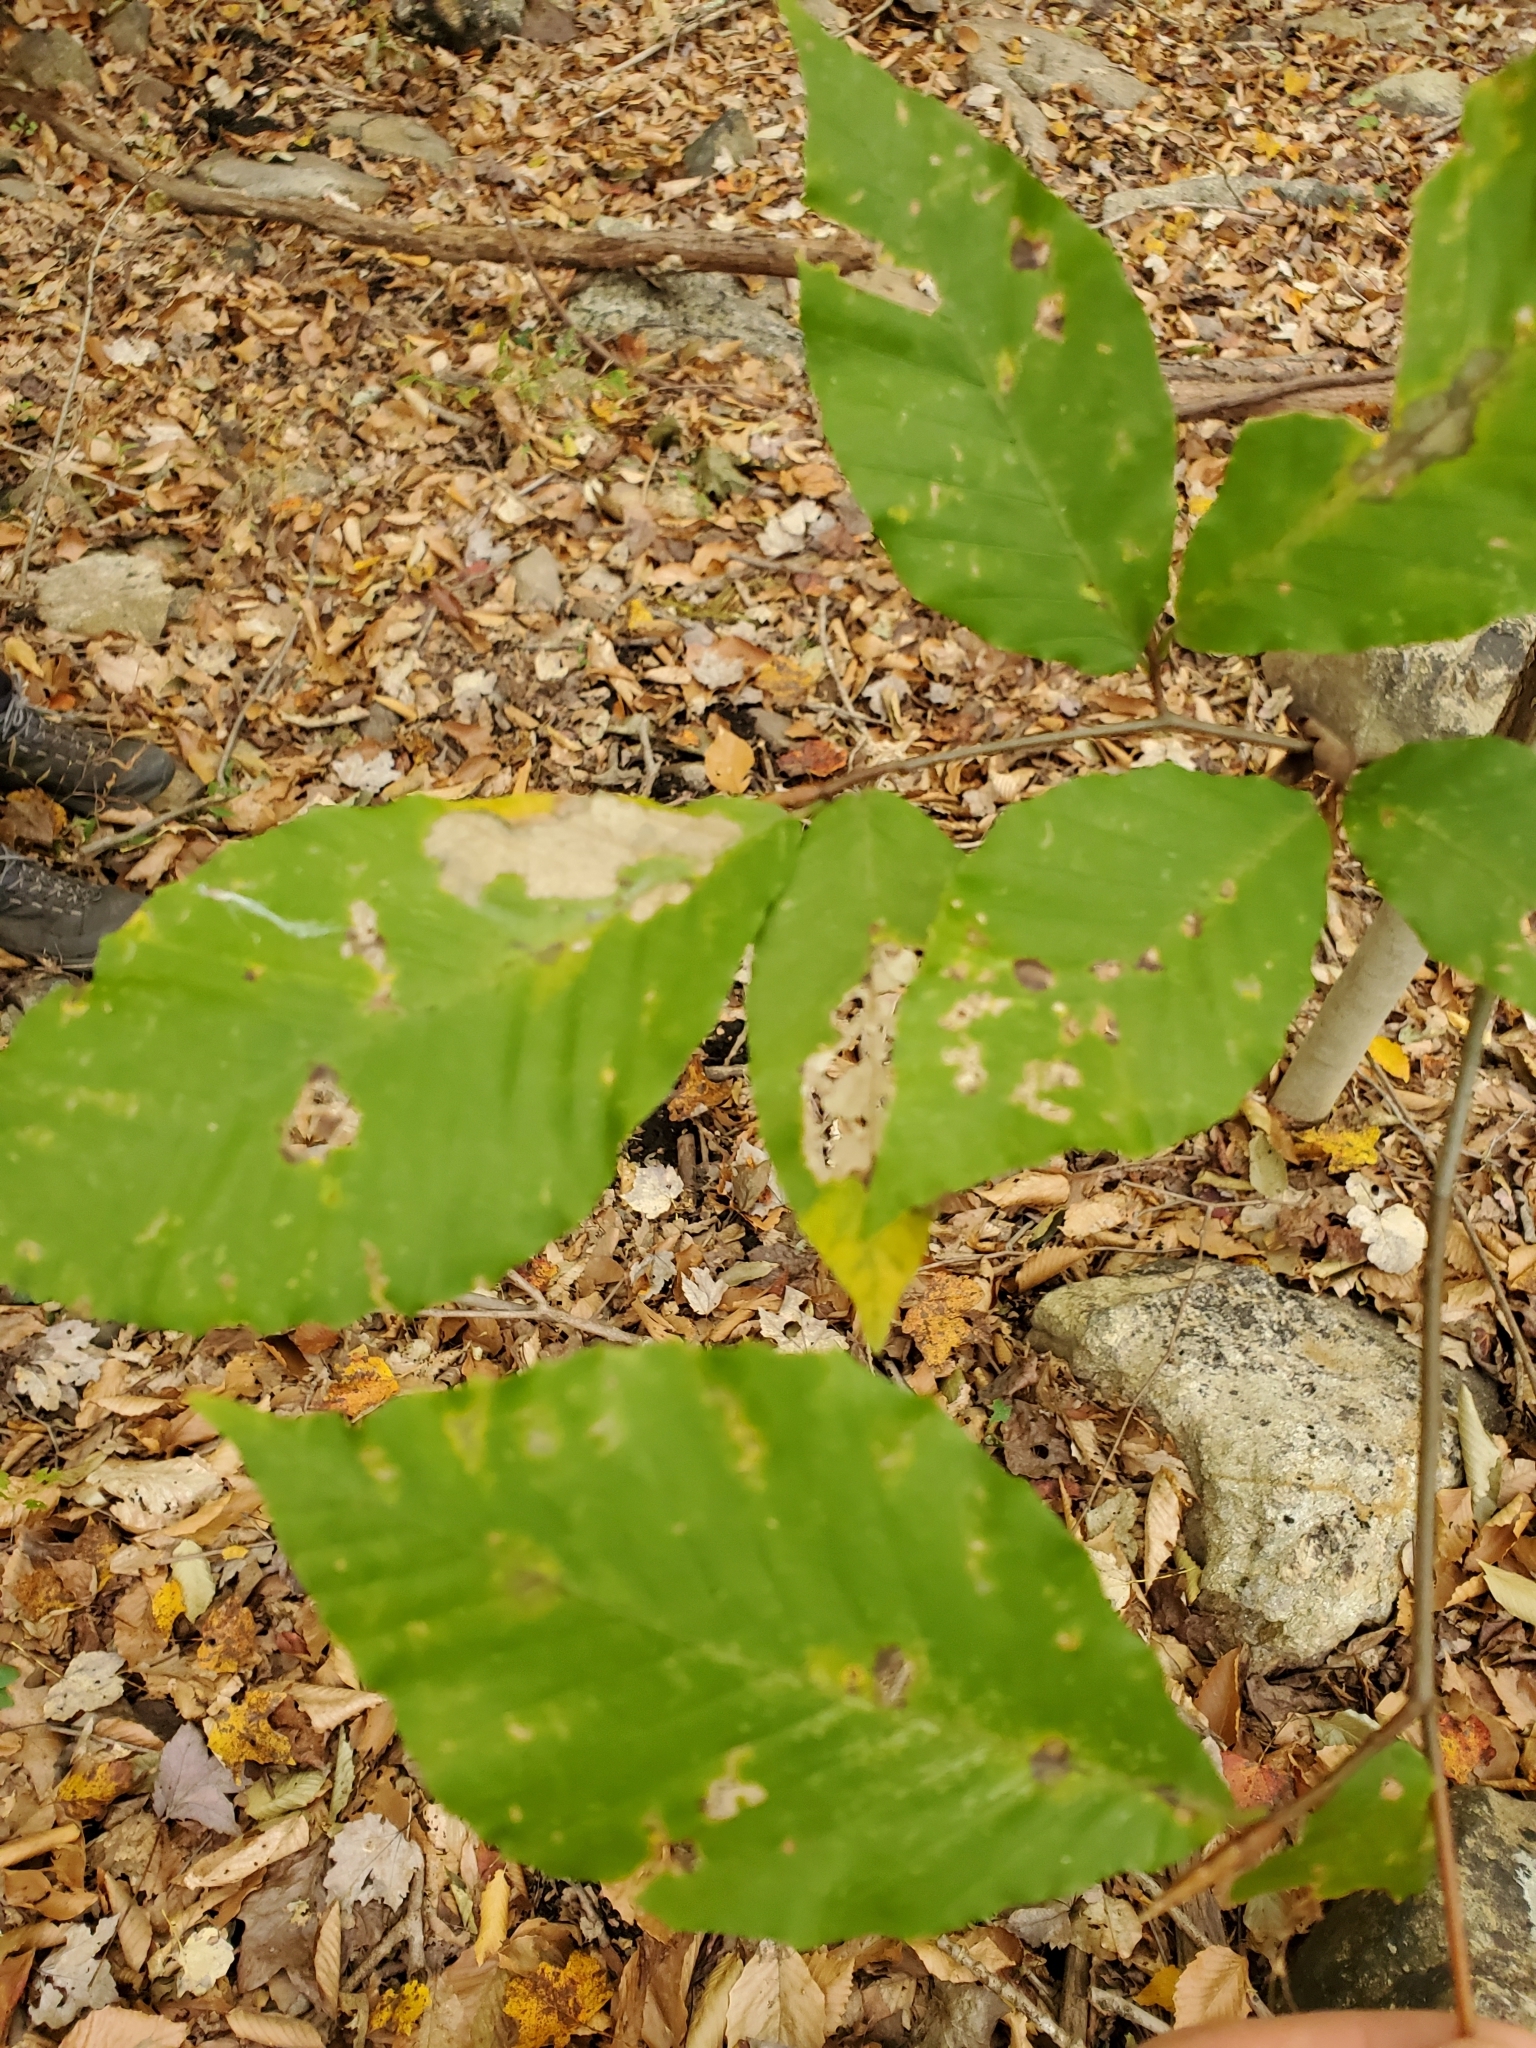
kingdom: Plantae
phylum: Tracheophyta
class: Magnoliopsida
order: Fagales
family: Fagaceae
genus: Fagus
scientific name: Fagus grandifolia
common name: American beech
